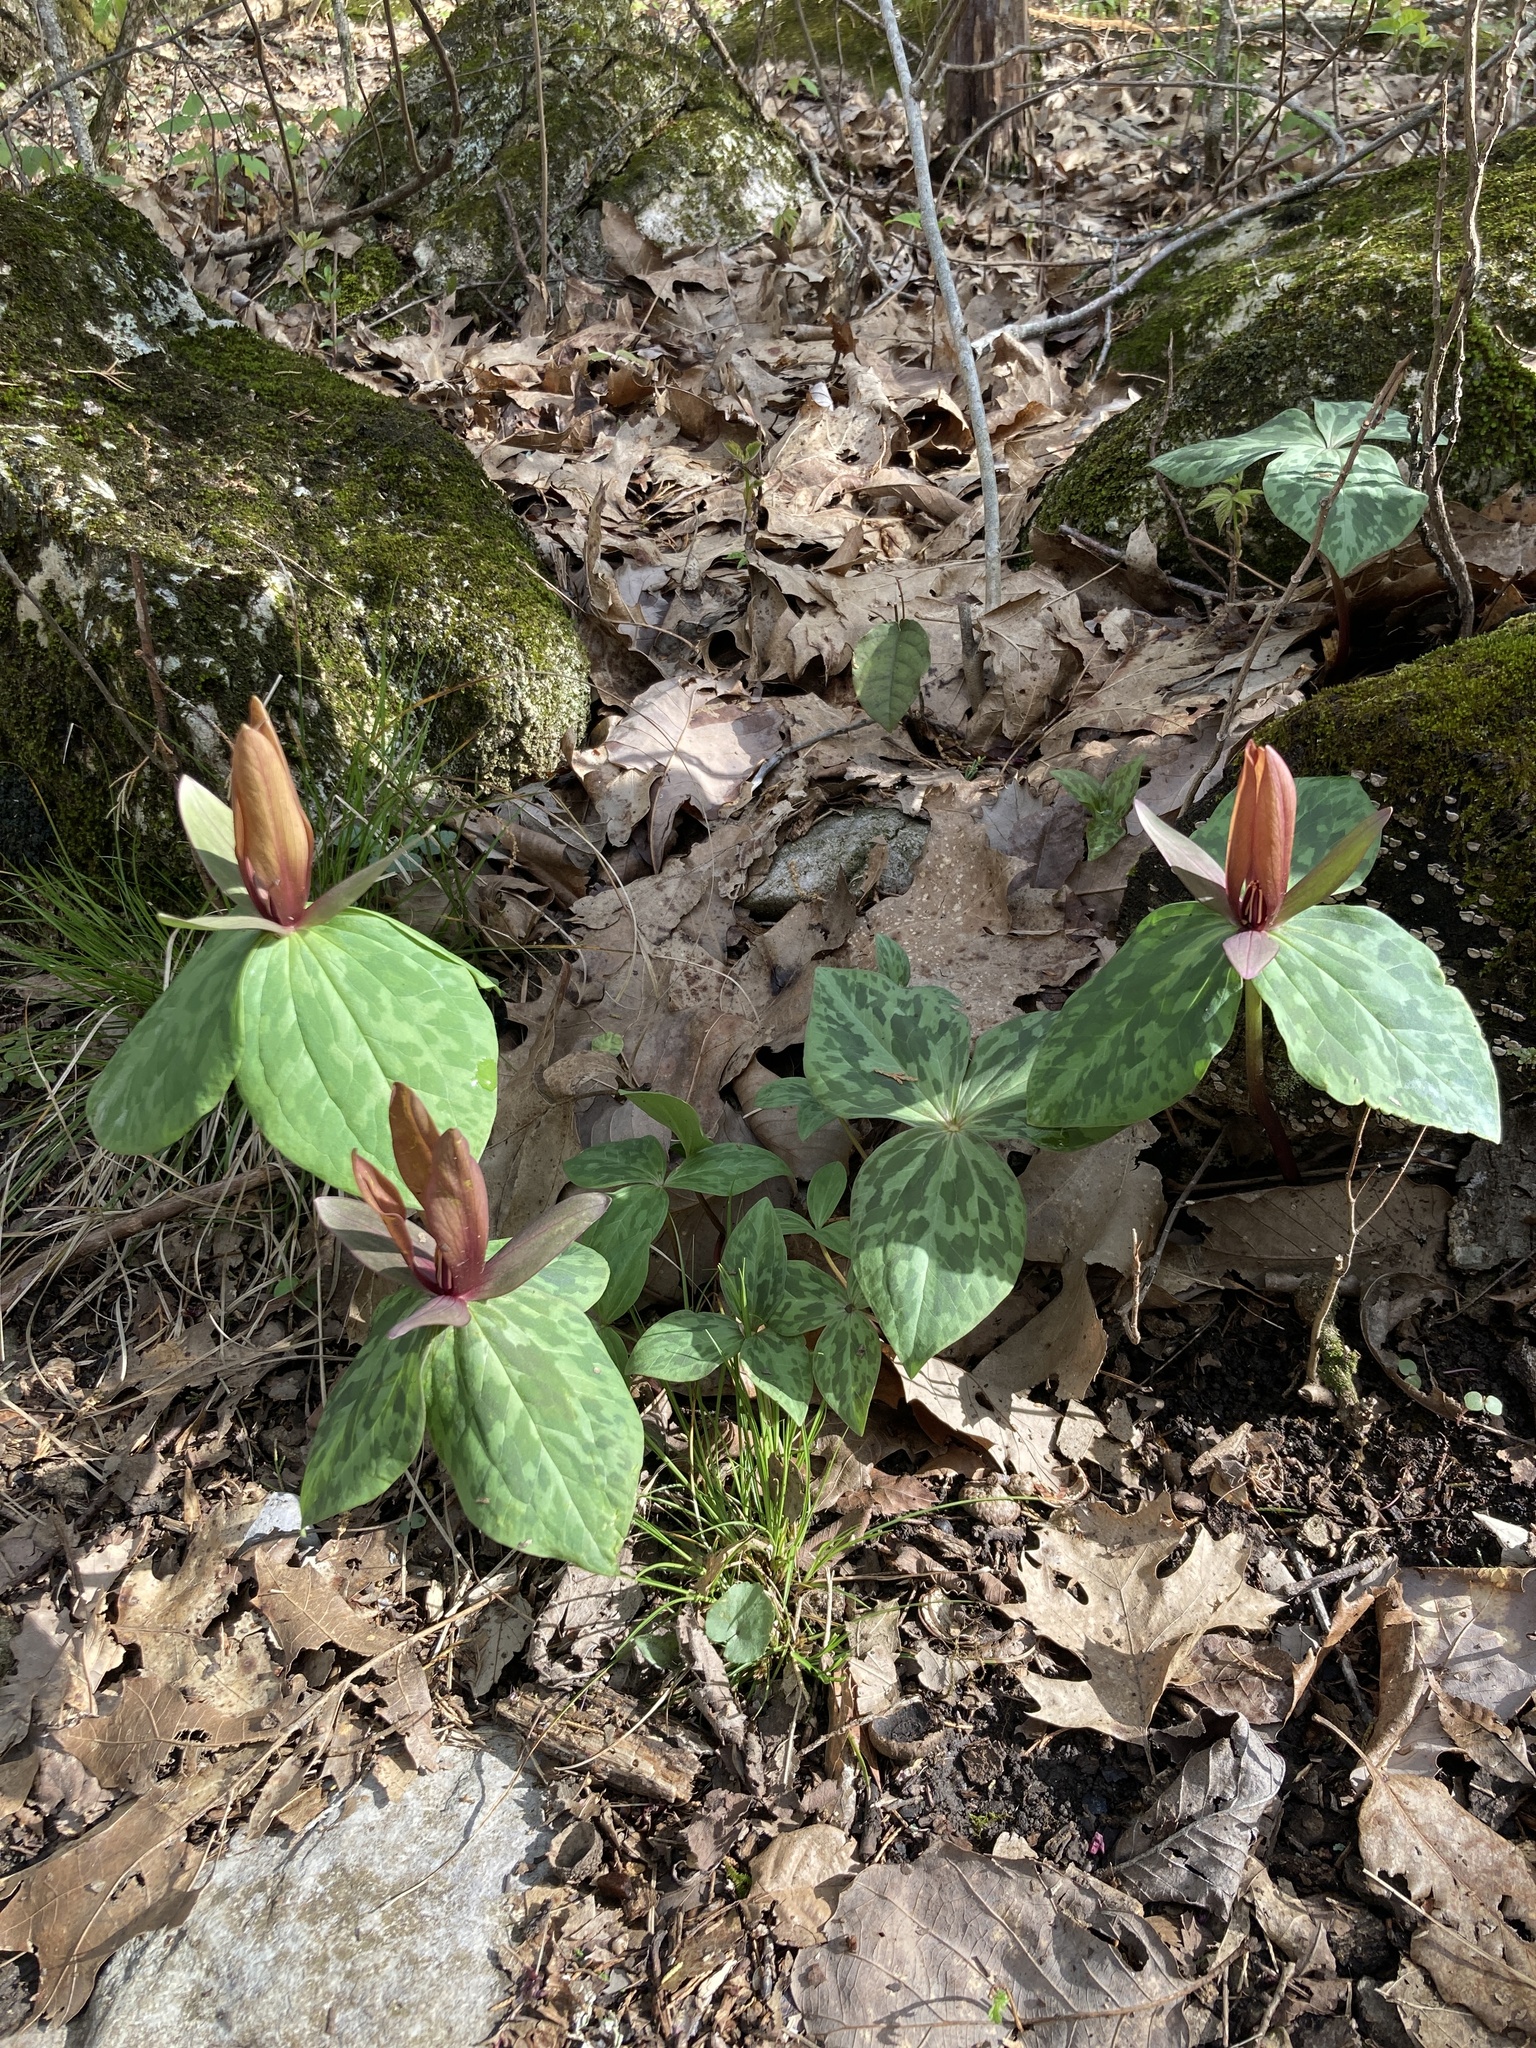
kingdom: Plantae
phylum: Tracheophyta
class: Liliopsida
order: Liliales
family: Melanthiaceae
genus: Trillium
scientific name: Trillium cuneatum
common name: Cuneate trillium
